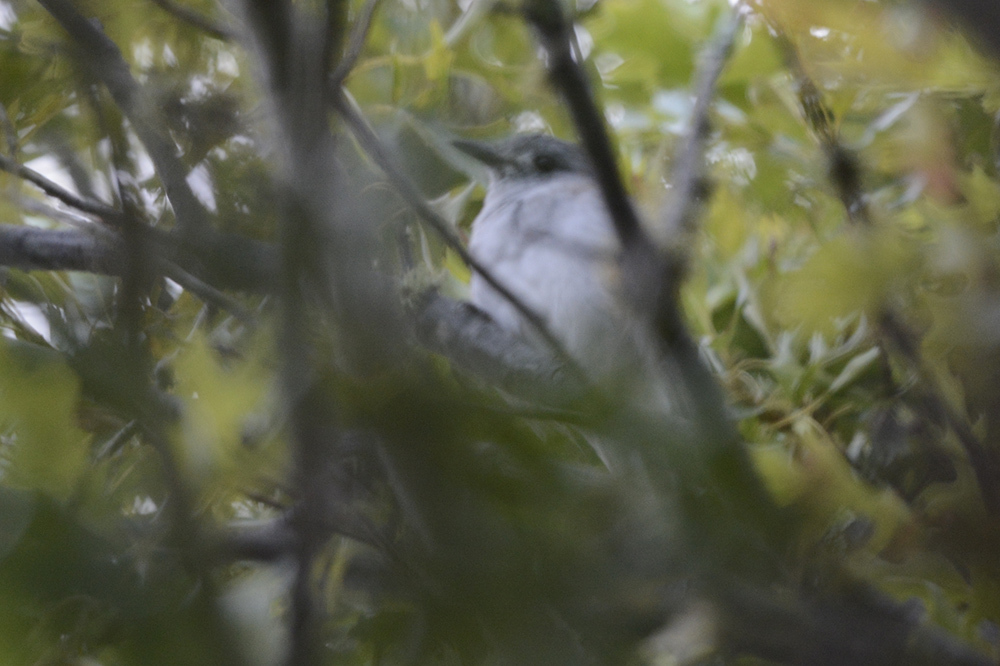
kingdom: Animalia
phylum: Chordata
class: Aves
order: Passeriformes
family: Pachycephalidae
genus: Colluricincla
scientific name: Colluricincla harmonica
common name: Grey shrikethrush
